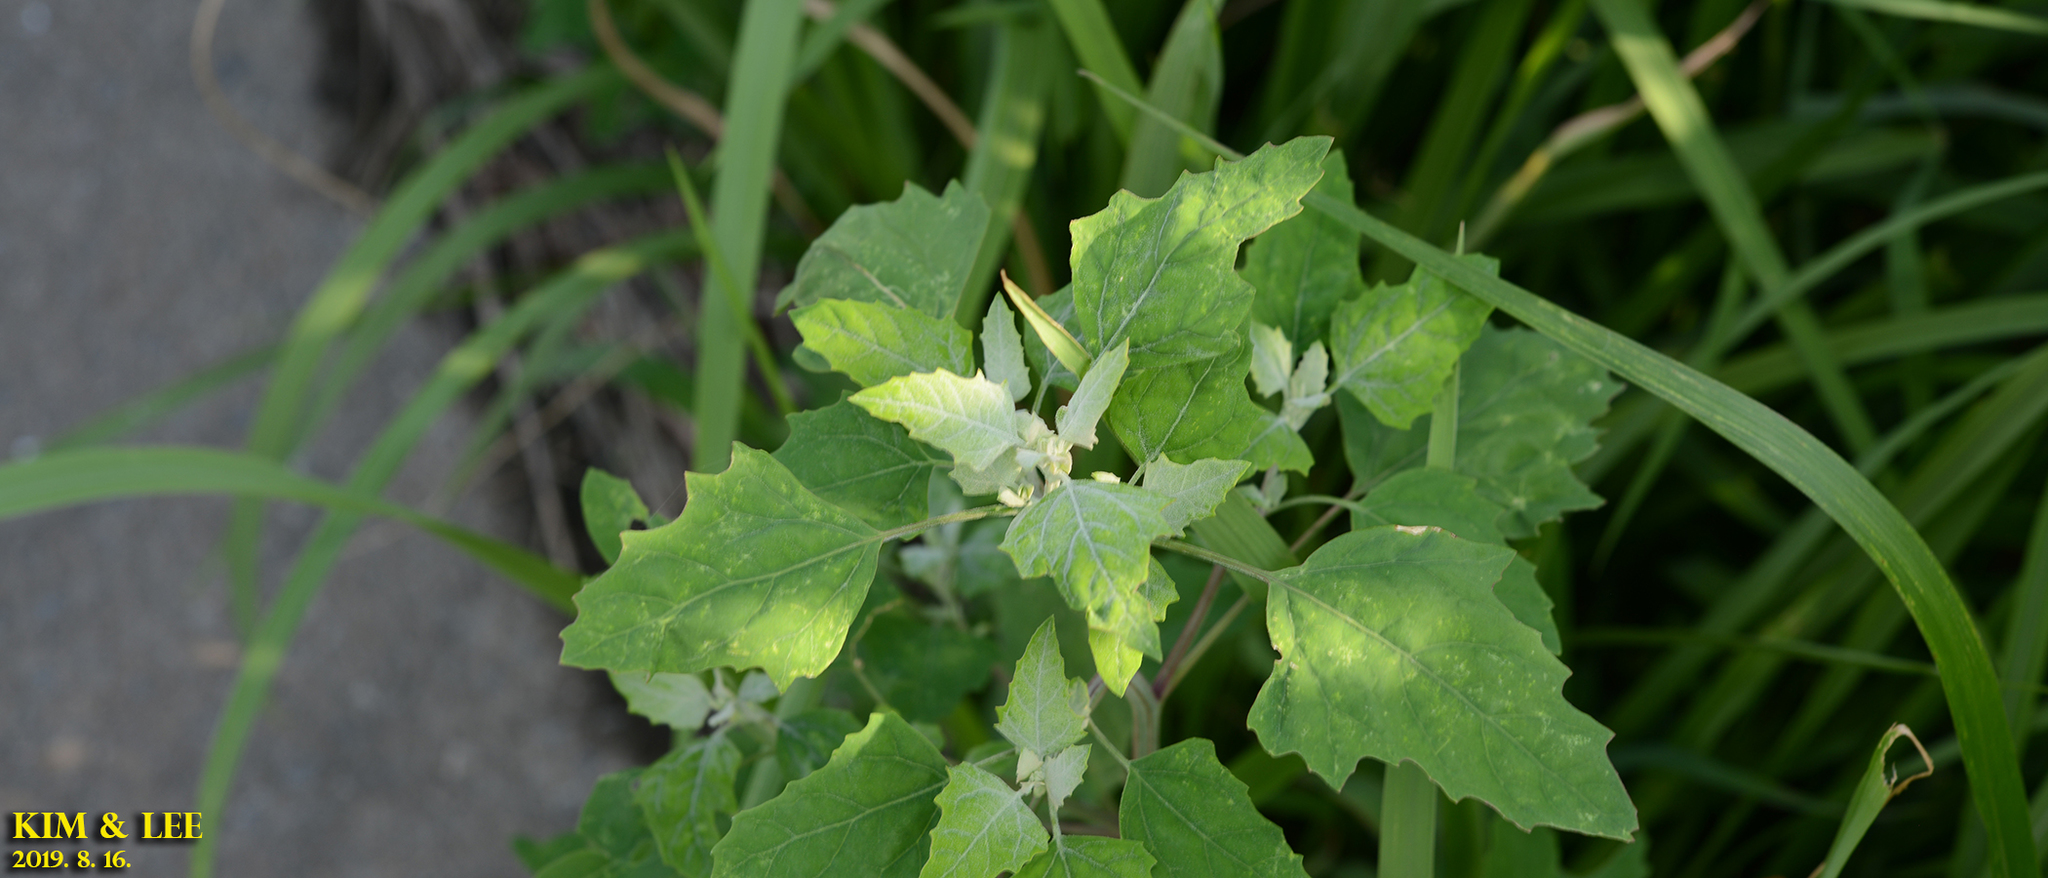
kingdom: Plantae
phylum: Tracheophyta
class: Magnoliopsida
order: Caryophyllales
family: Amaranthaceae
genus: Chenopodium
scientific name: Chenopodium album
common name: Fat-hen
